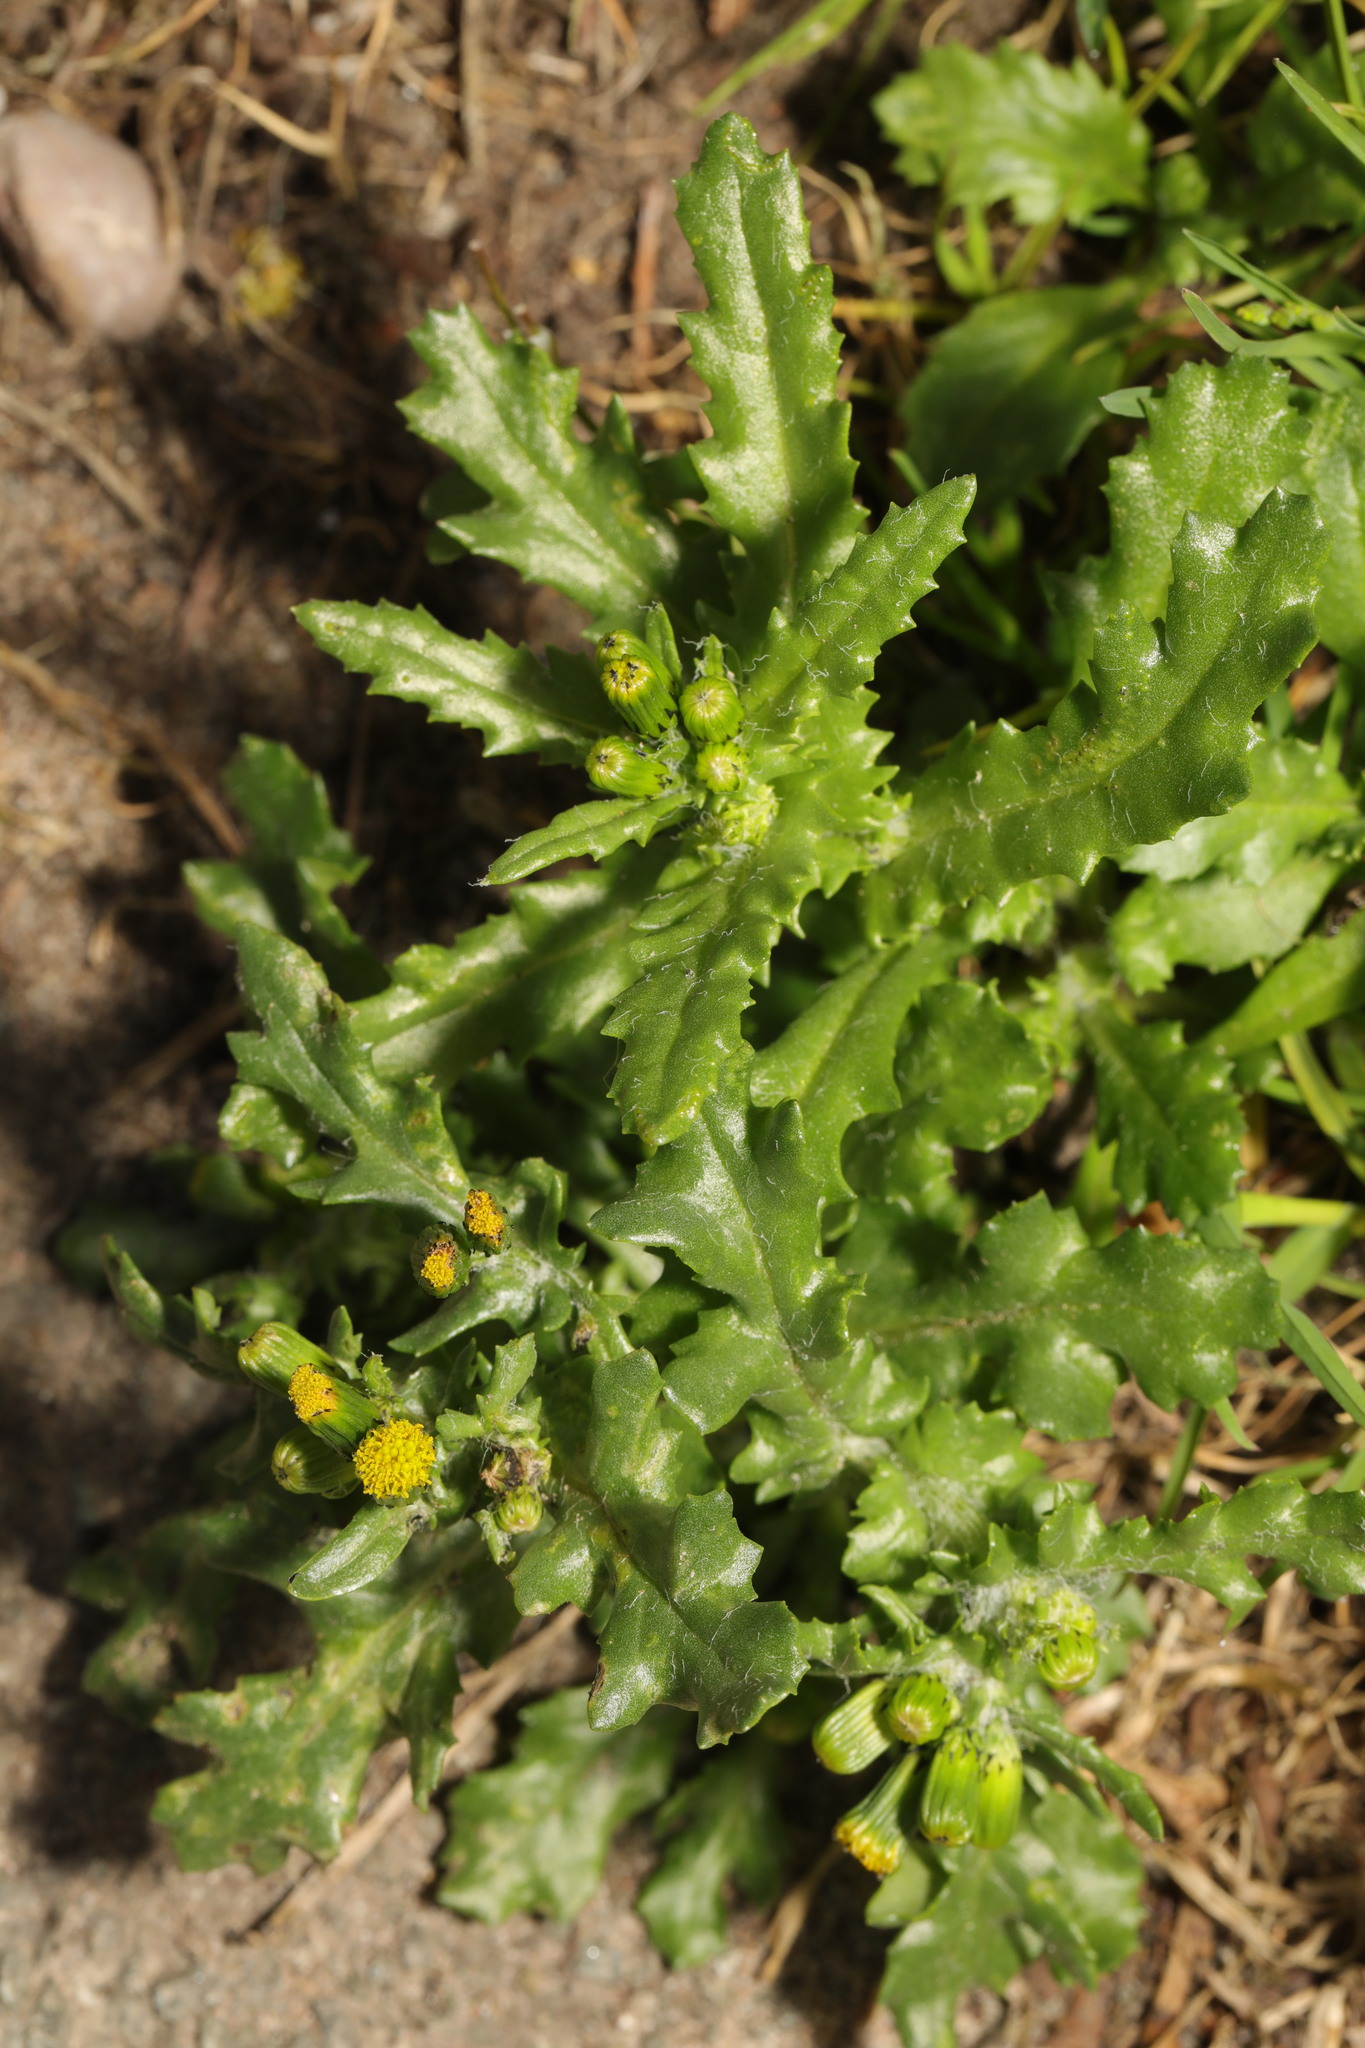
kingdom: Plantae
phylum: Tracheophyta
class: Magnoliopsida
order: Asterales
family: Asteraceae
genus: Senecio
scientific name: Senecio vulgaris
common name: Old-man-in-the-spring
